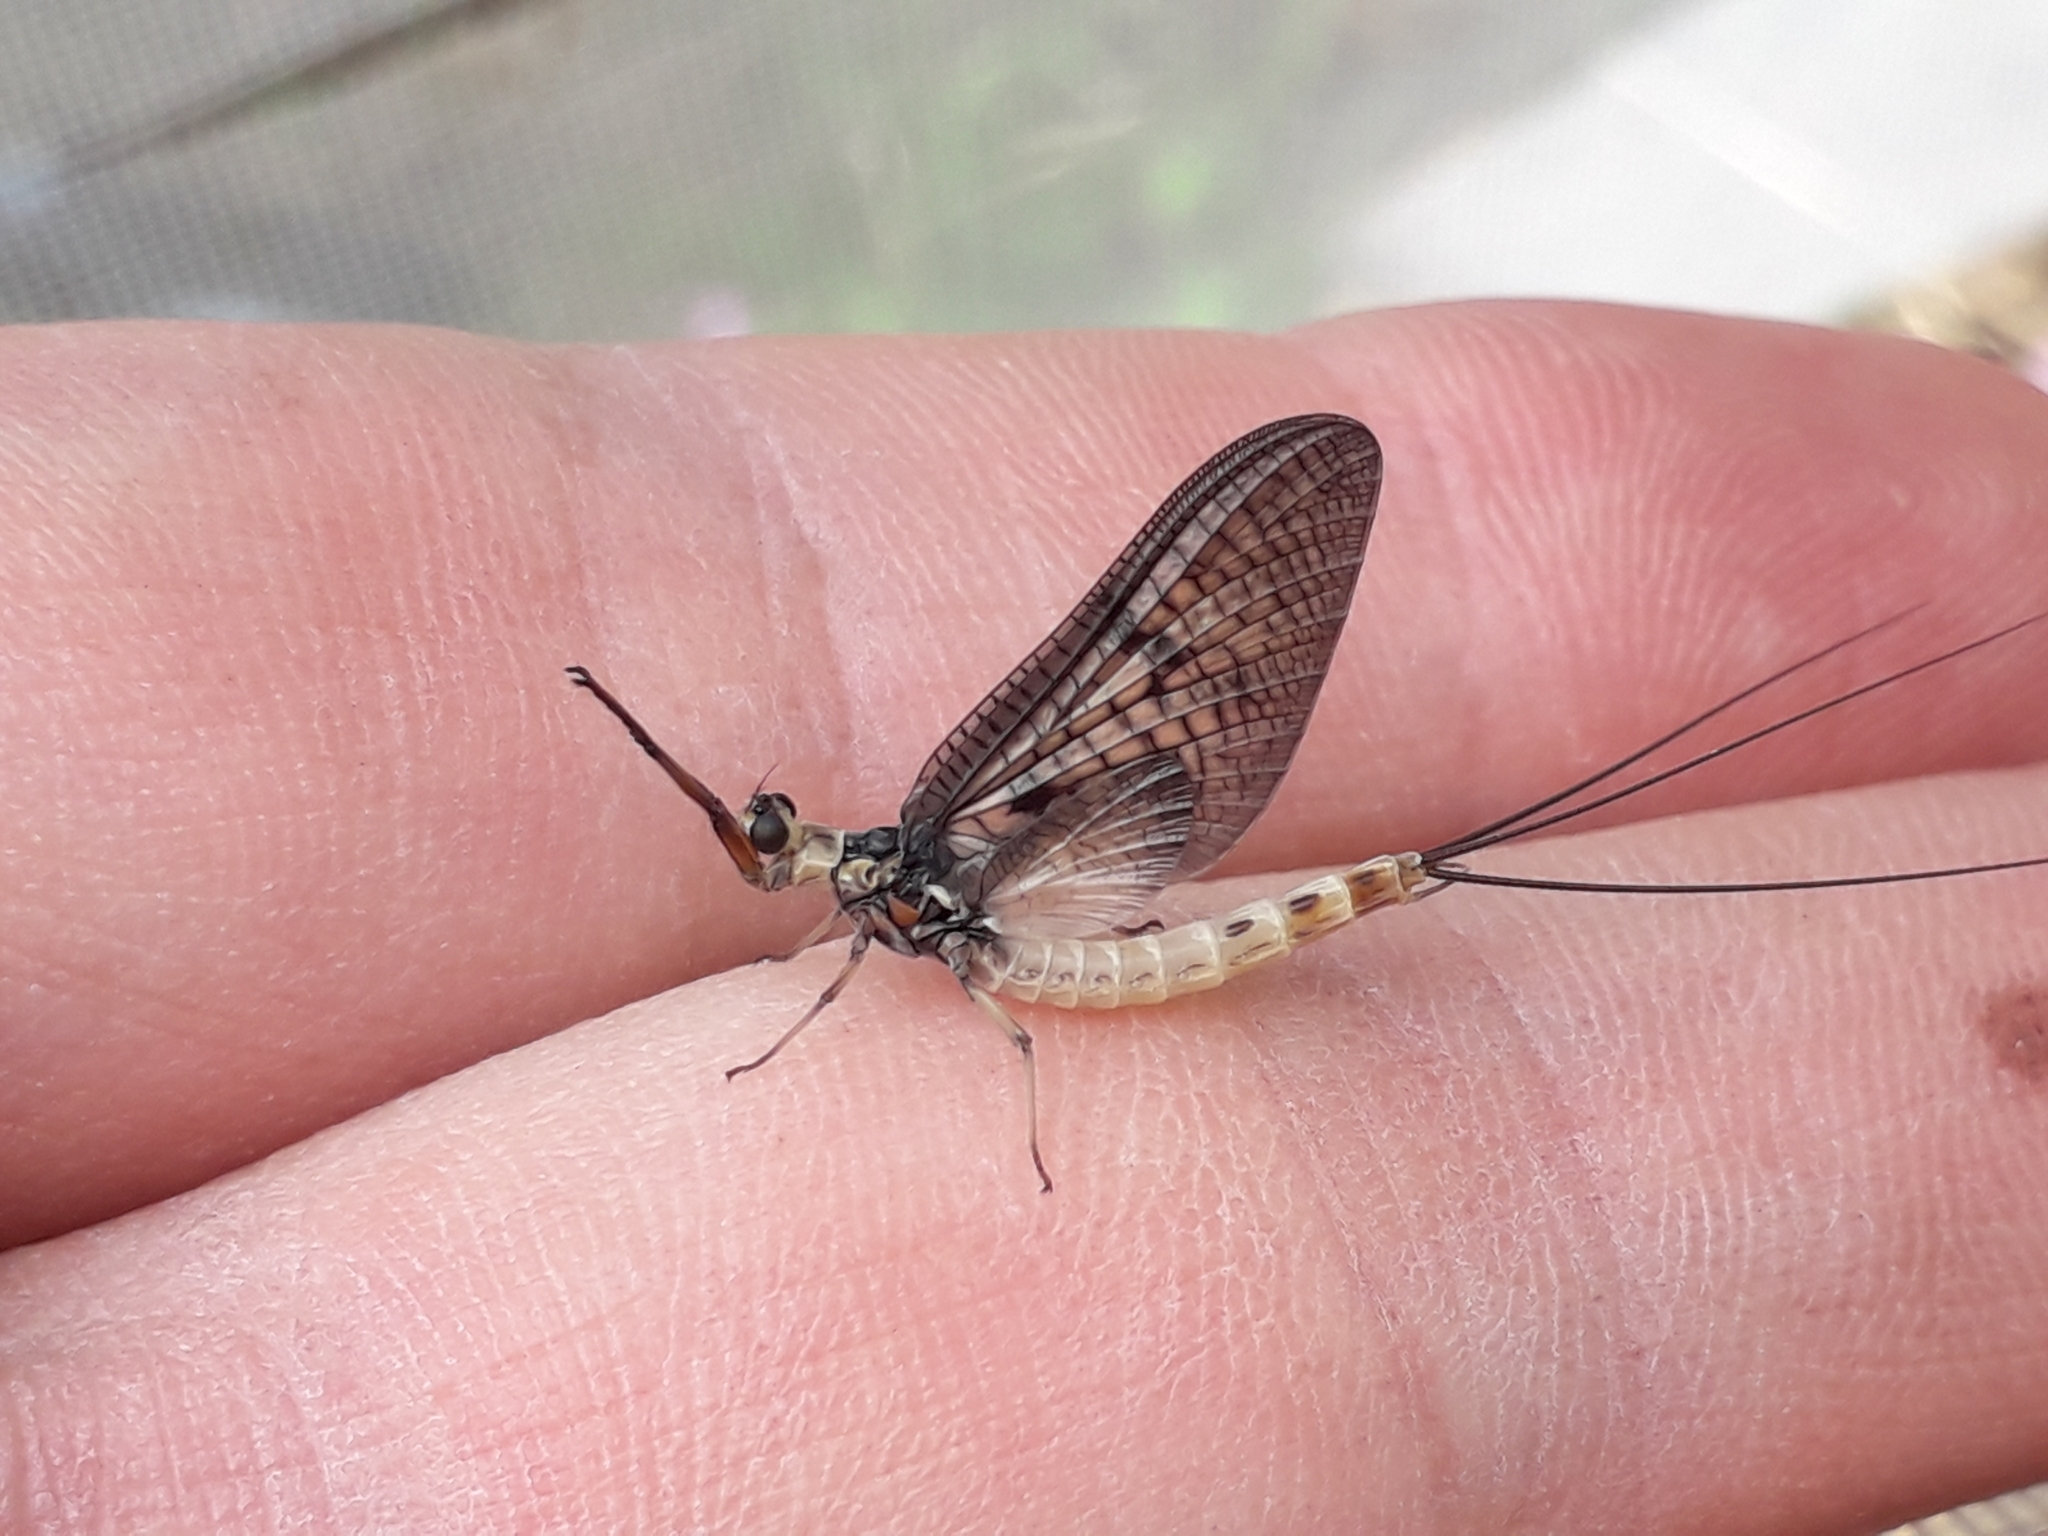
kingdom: Animalia
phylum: Arthropoda
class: Insecta
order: Ephemeroptera
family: Ephemeridae
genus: Ephemera
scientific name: Ephemera danica
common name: Green dun
